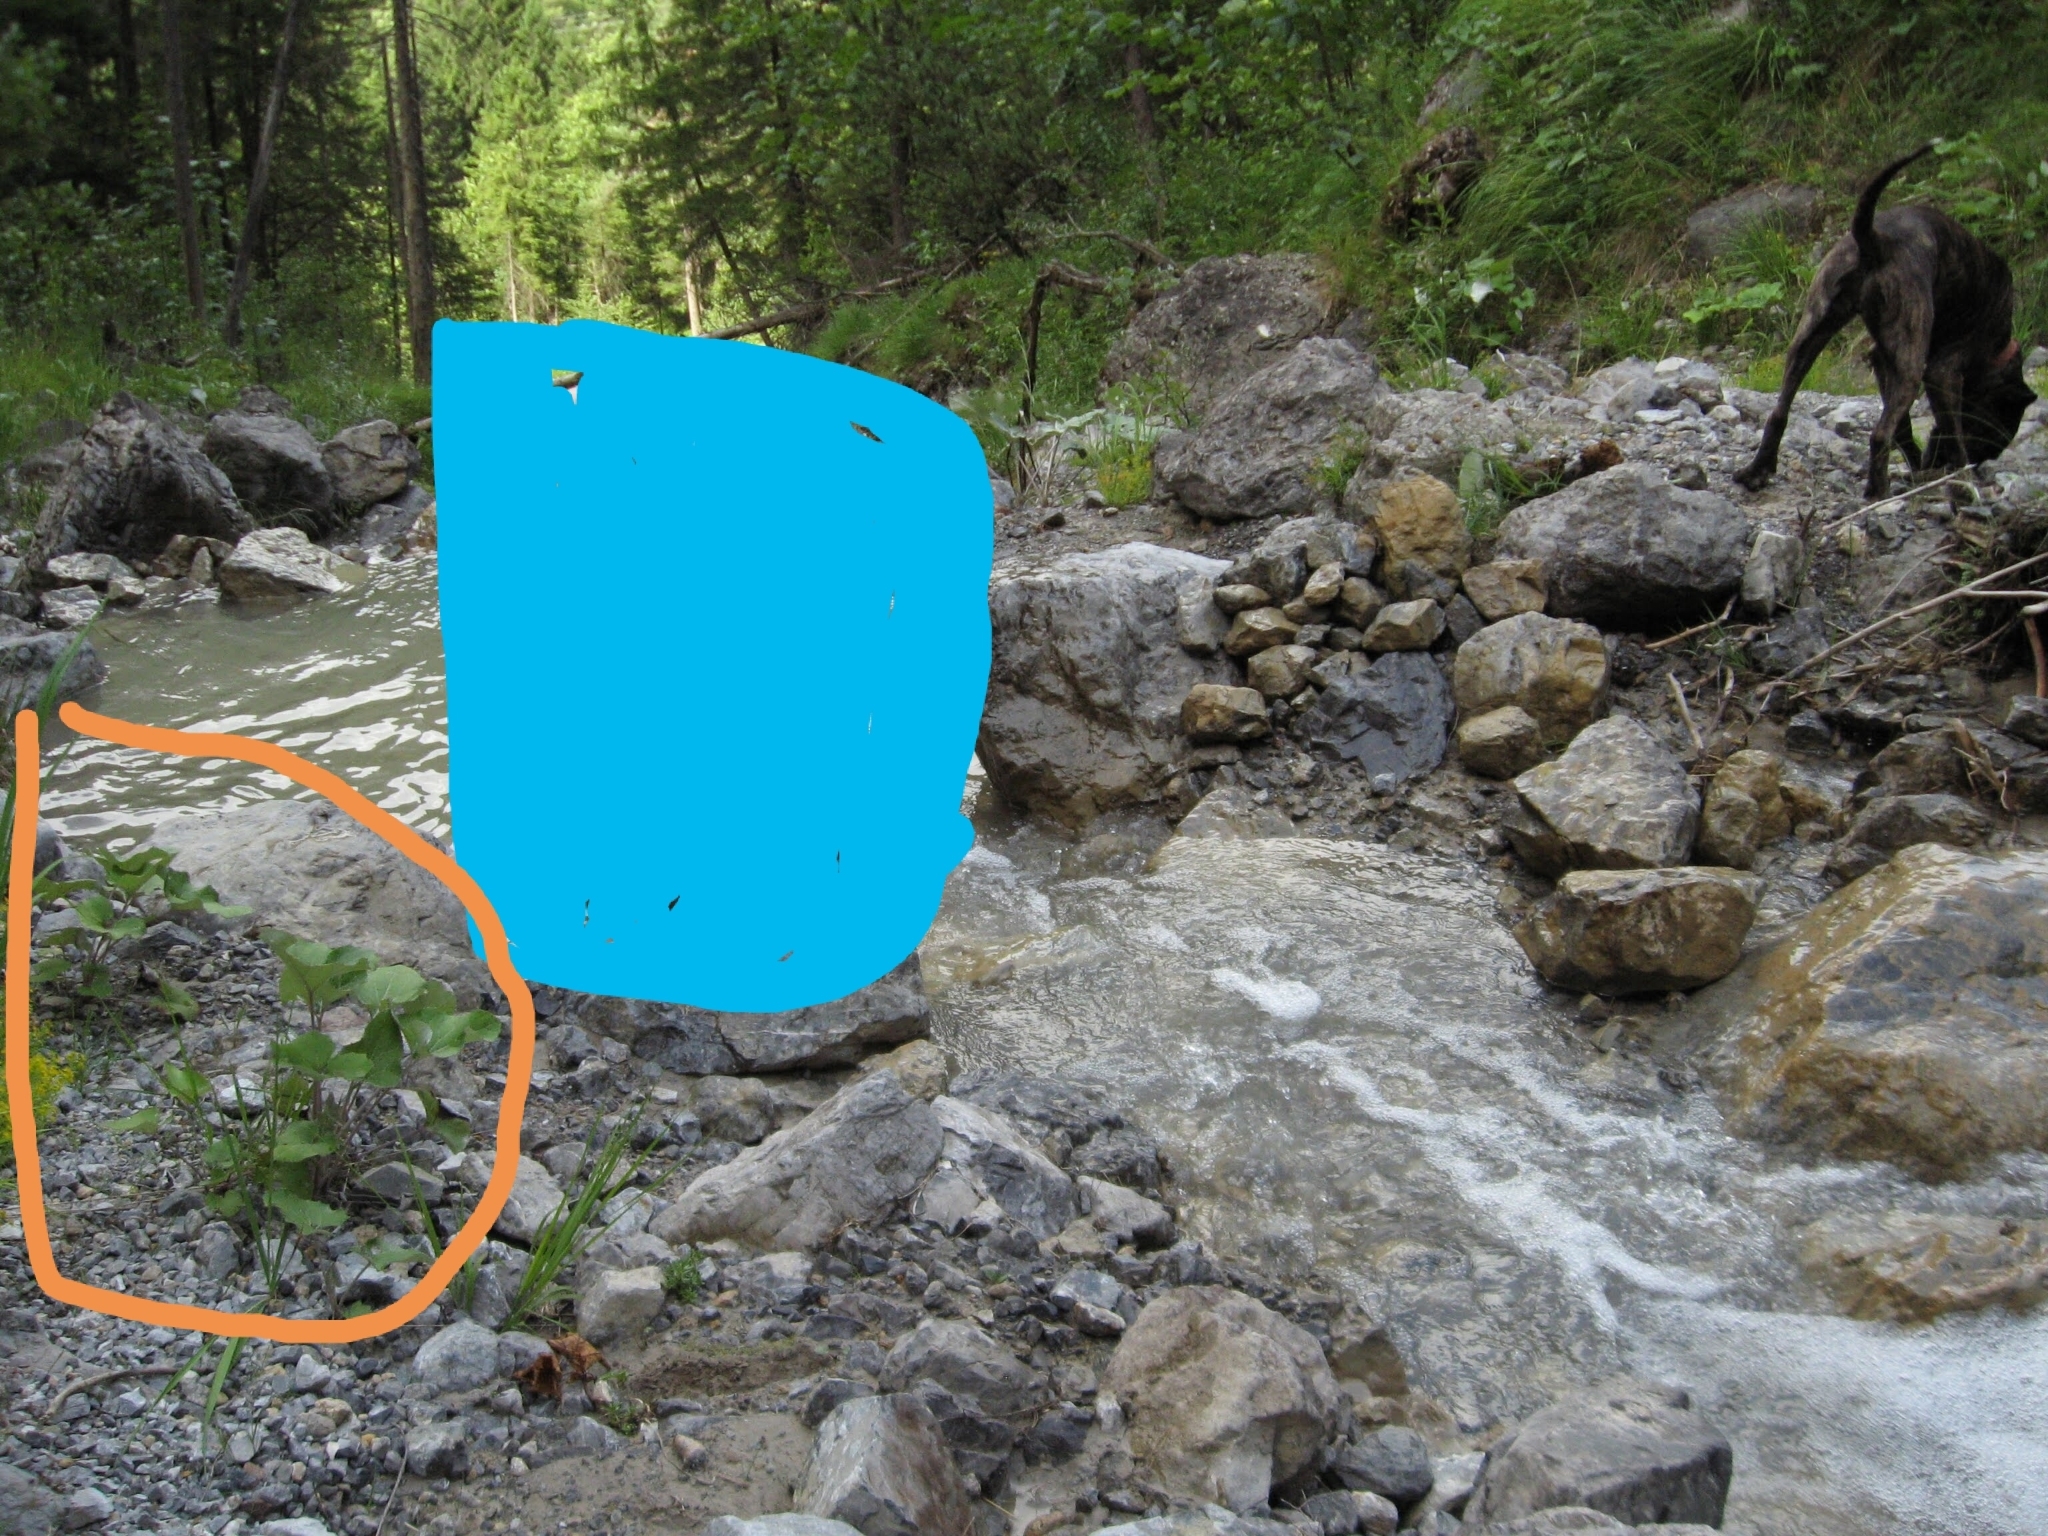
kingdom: Plantae
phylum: Tracheophyta
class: Magnoliopsida
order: Asterales
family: Asteraceae
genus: Tussilago
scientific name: Tussilago farfara
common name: Coltsfoot
